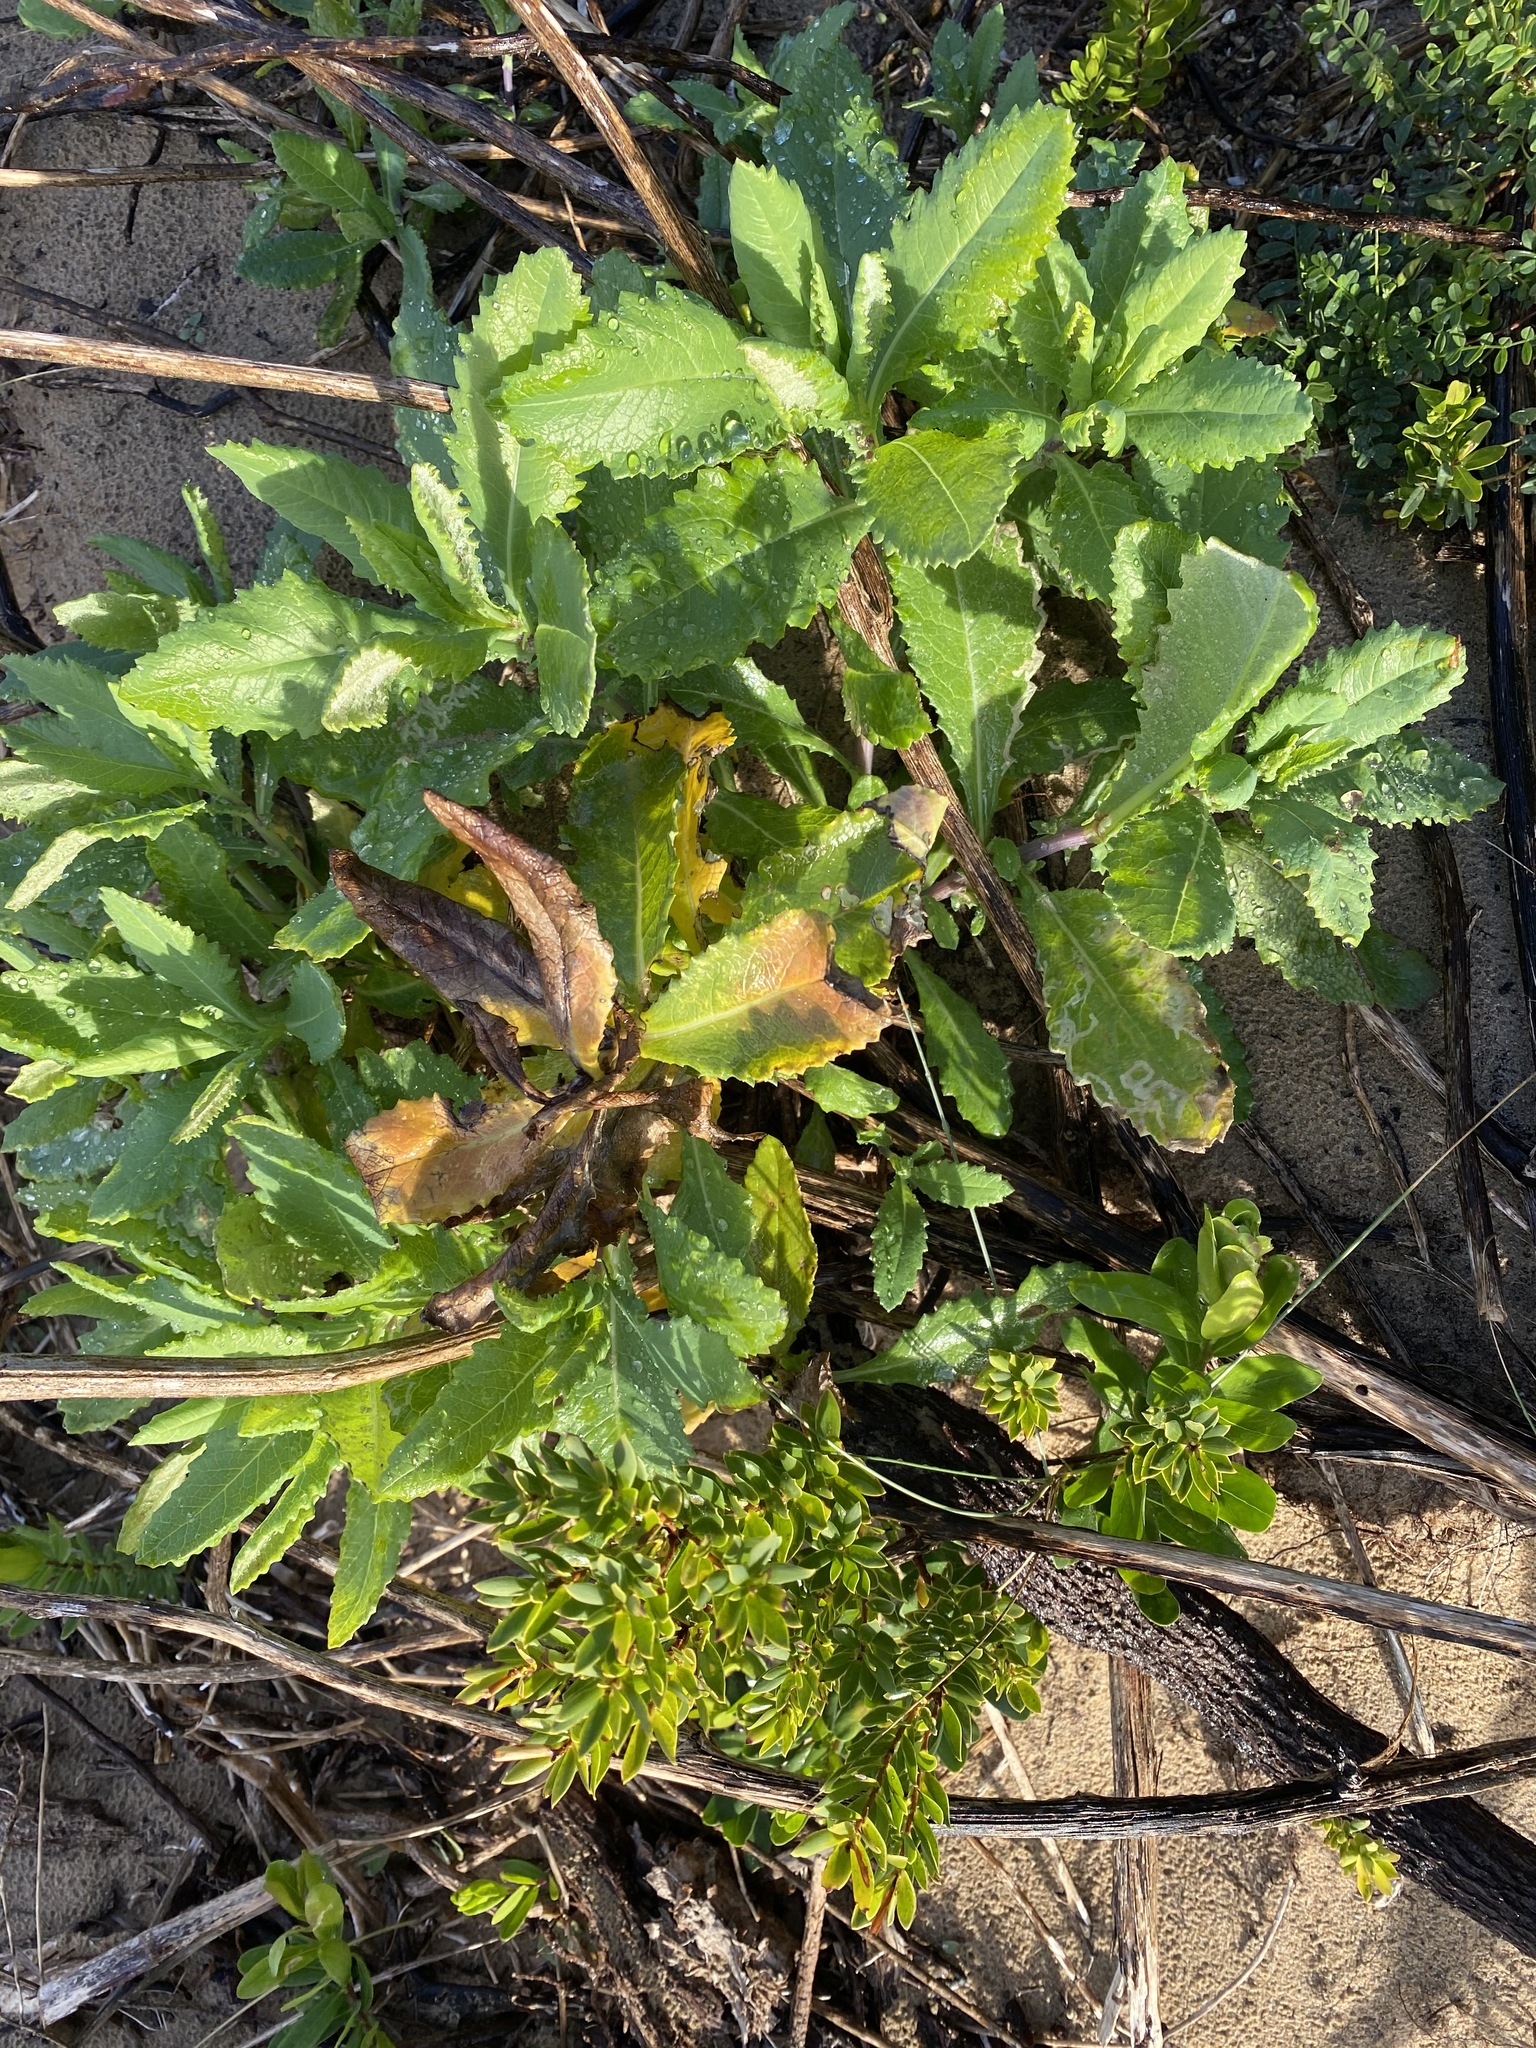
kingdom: Plantae
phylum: Tracheophyta
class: Magnoliopsida
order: Asterales
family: Asteraceae
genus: Sonchus
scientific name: Sonchus megalocarpus
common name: Dune thistle
